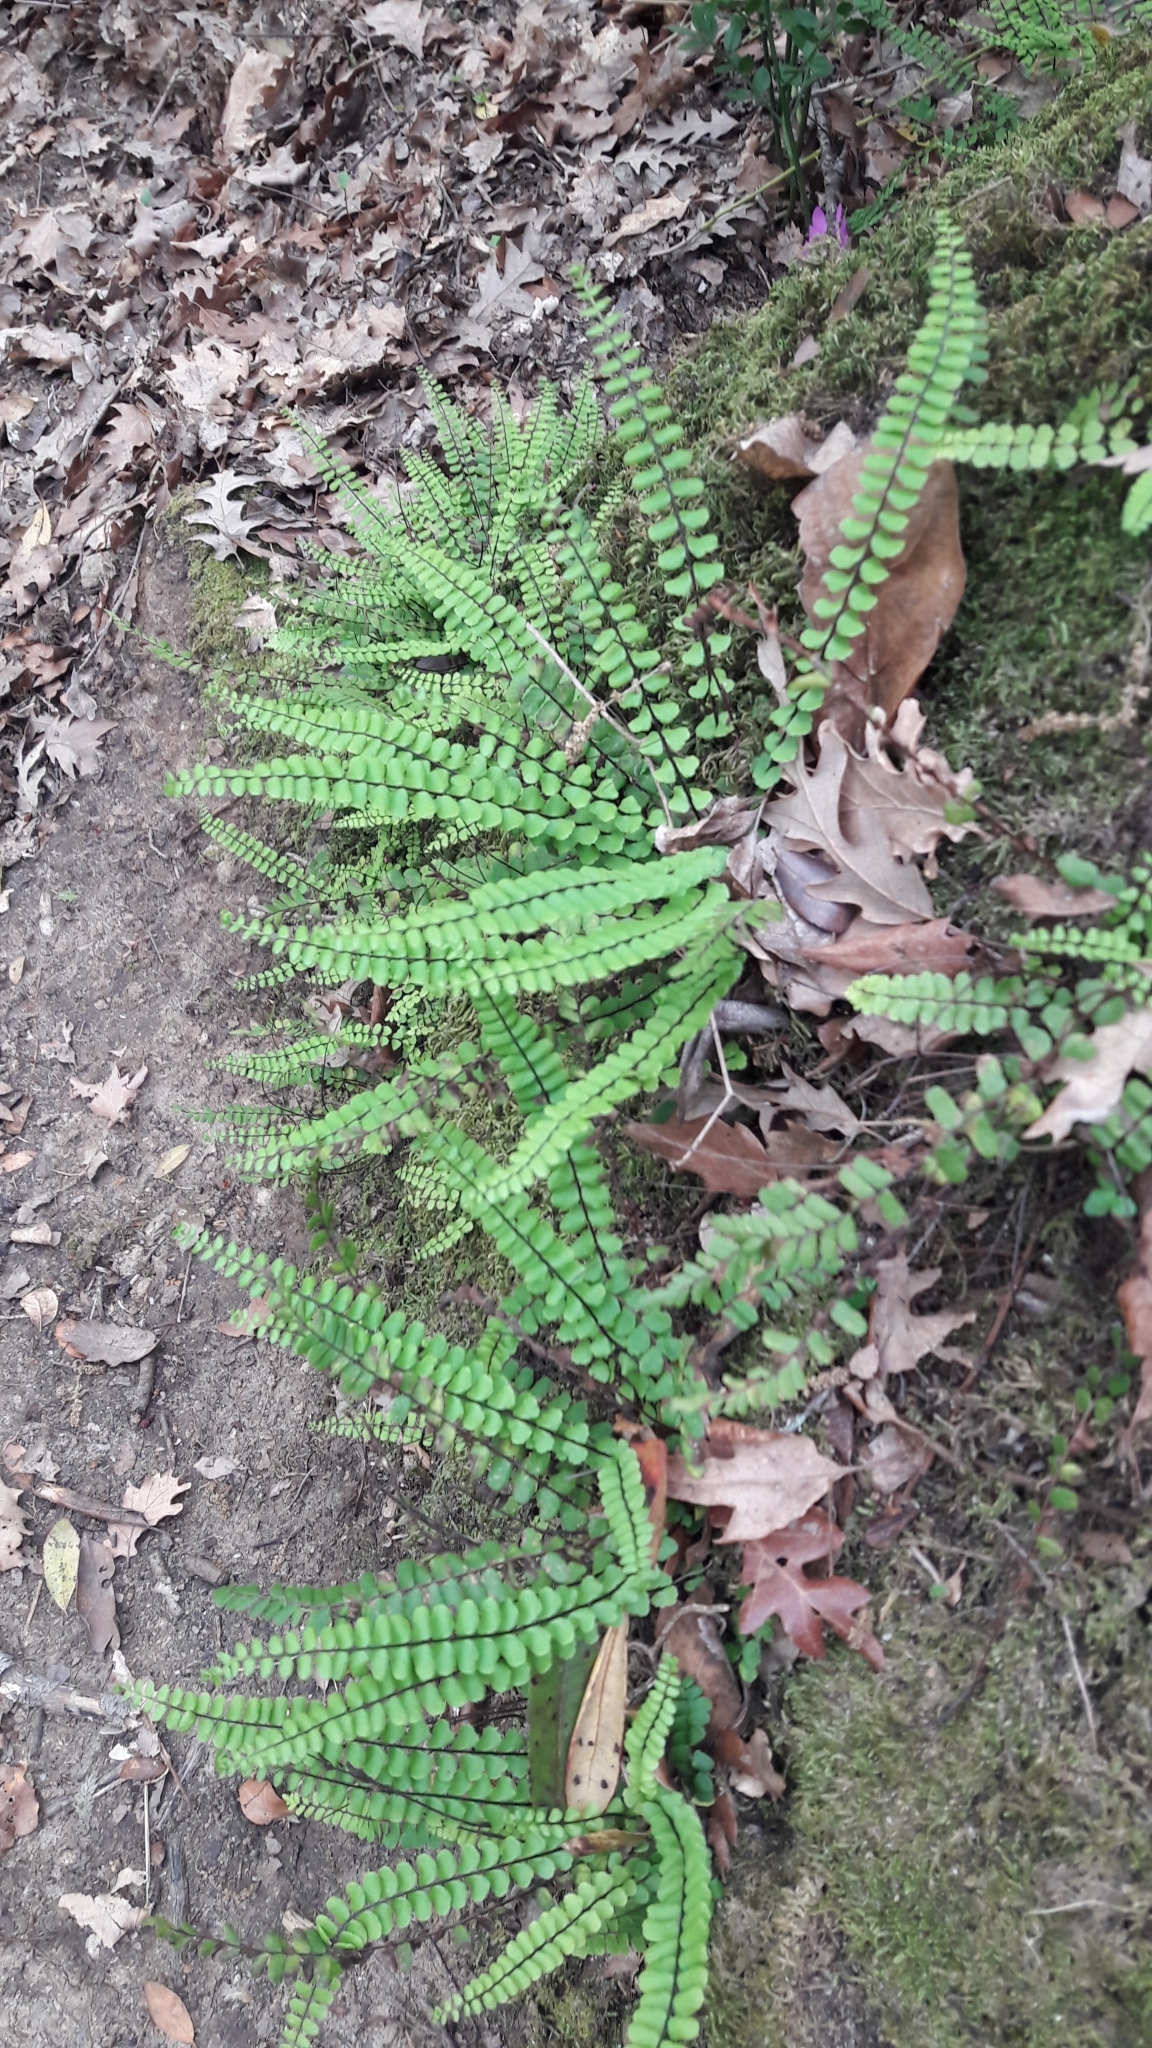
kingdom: Plantae
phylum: Tracheophyta
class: Polypodiopsida
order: Polypodiales
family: Aspleniaceae
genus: Asplenium
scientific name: Asplenium trichomanes
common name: Maidenhair spleenwort
